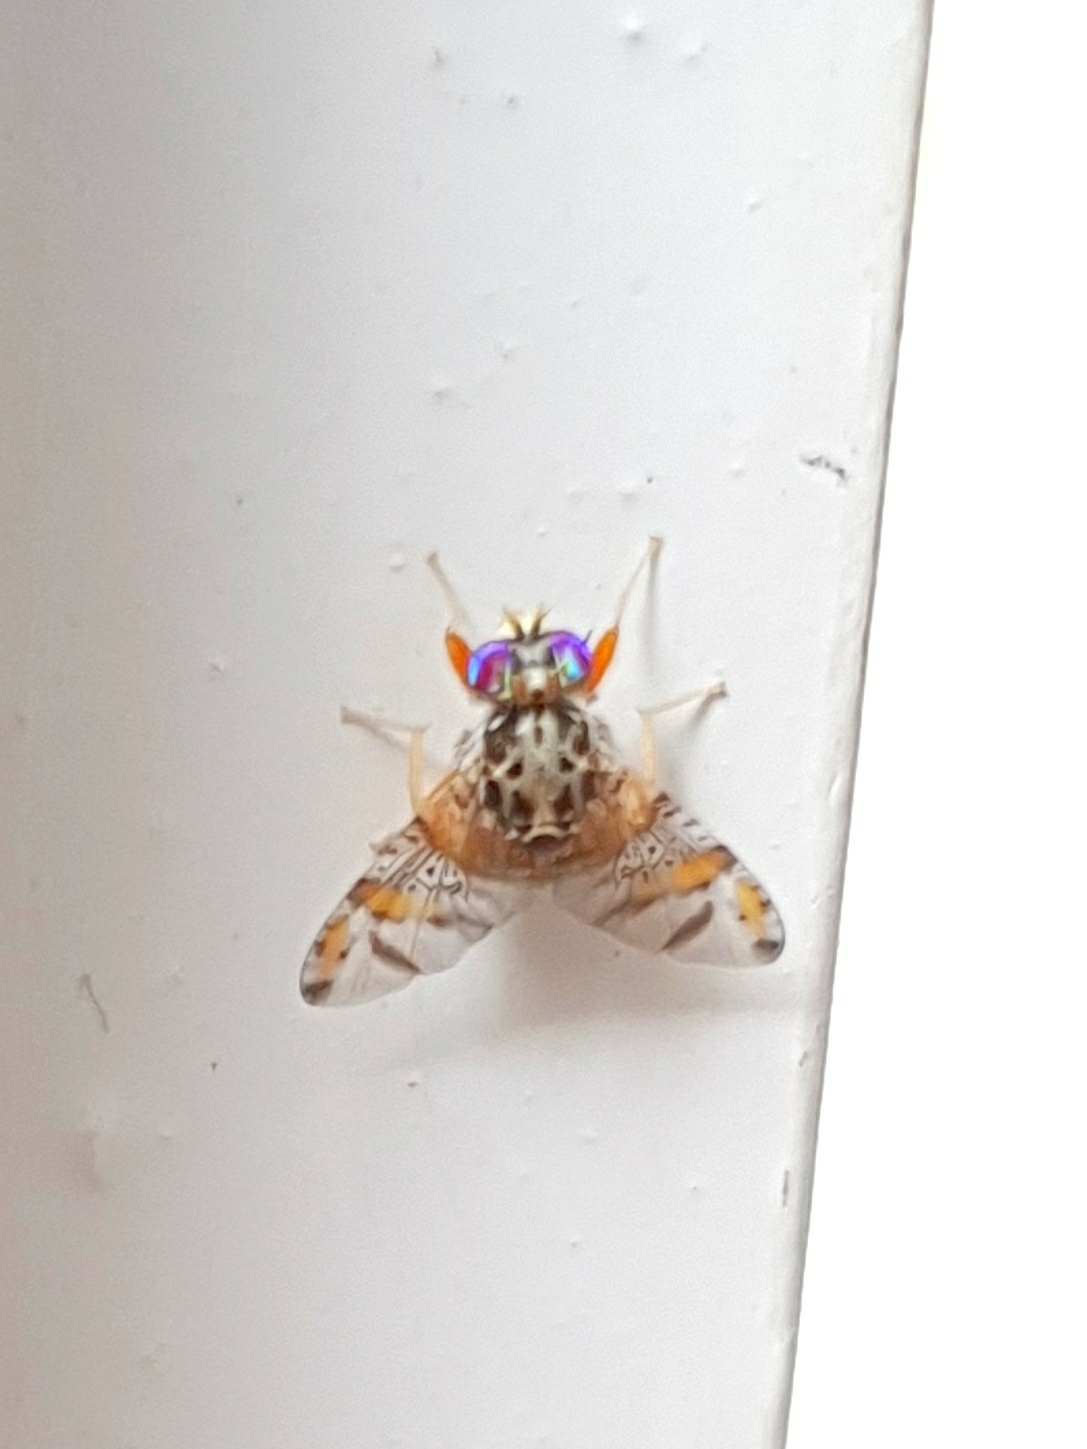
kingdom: Animalia
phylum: Arthropoda
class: Insecta
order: Diptera
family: Tephritidae
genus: Ceratitis
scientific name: Ceratitis capitata
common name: Mediterranean fruit fly
